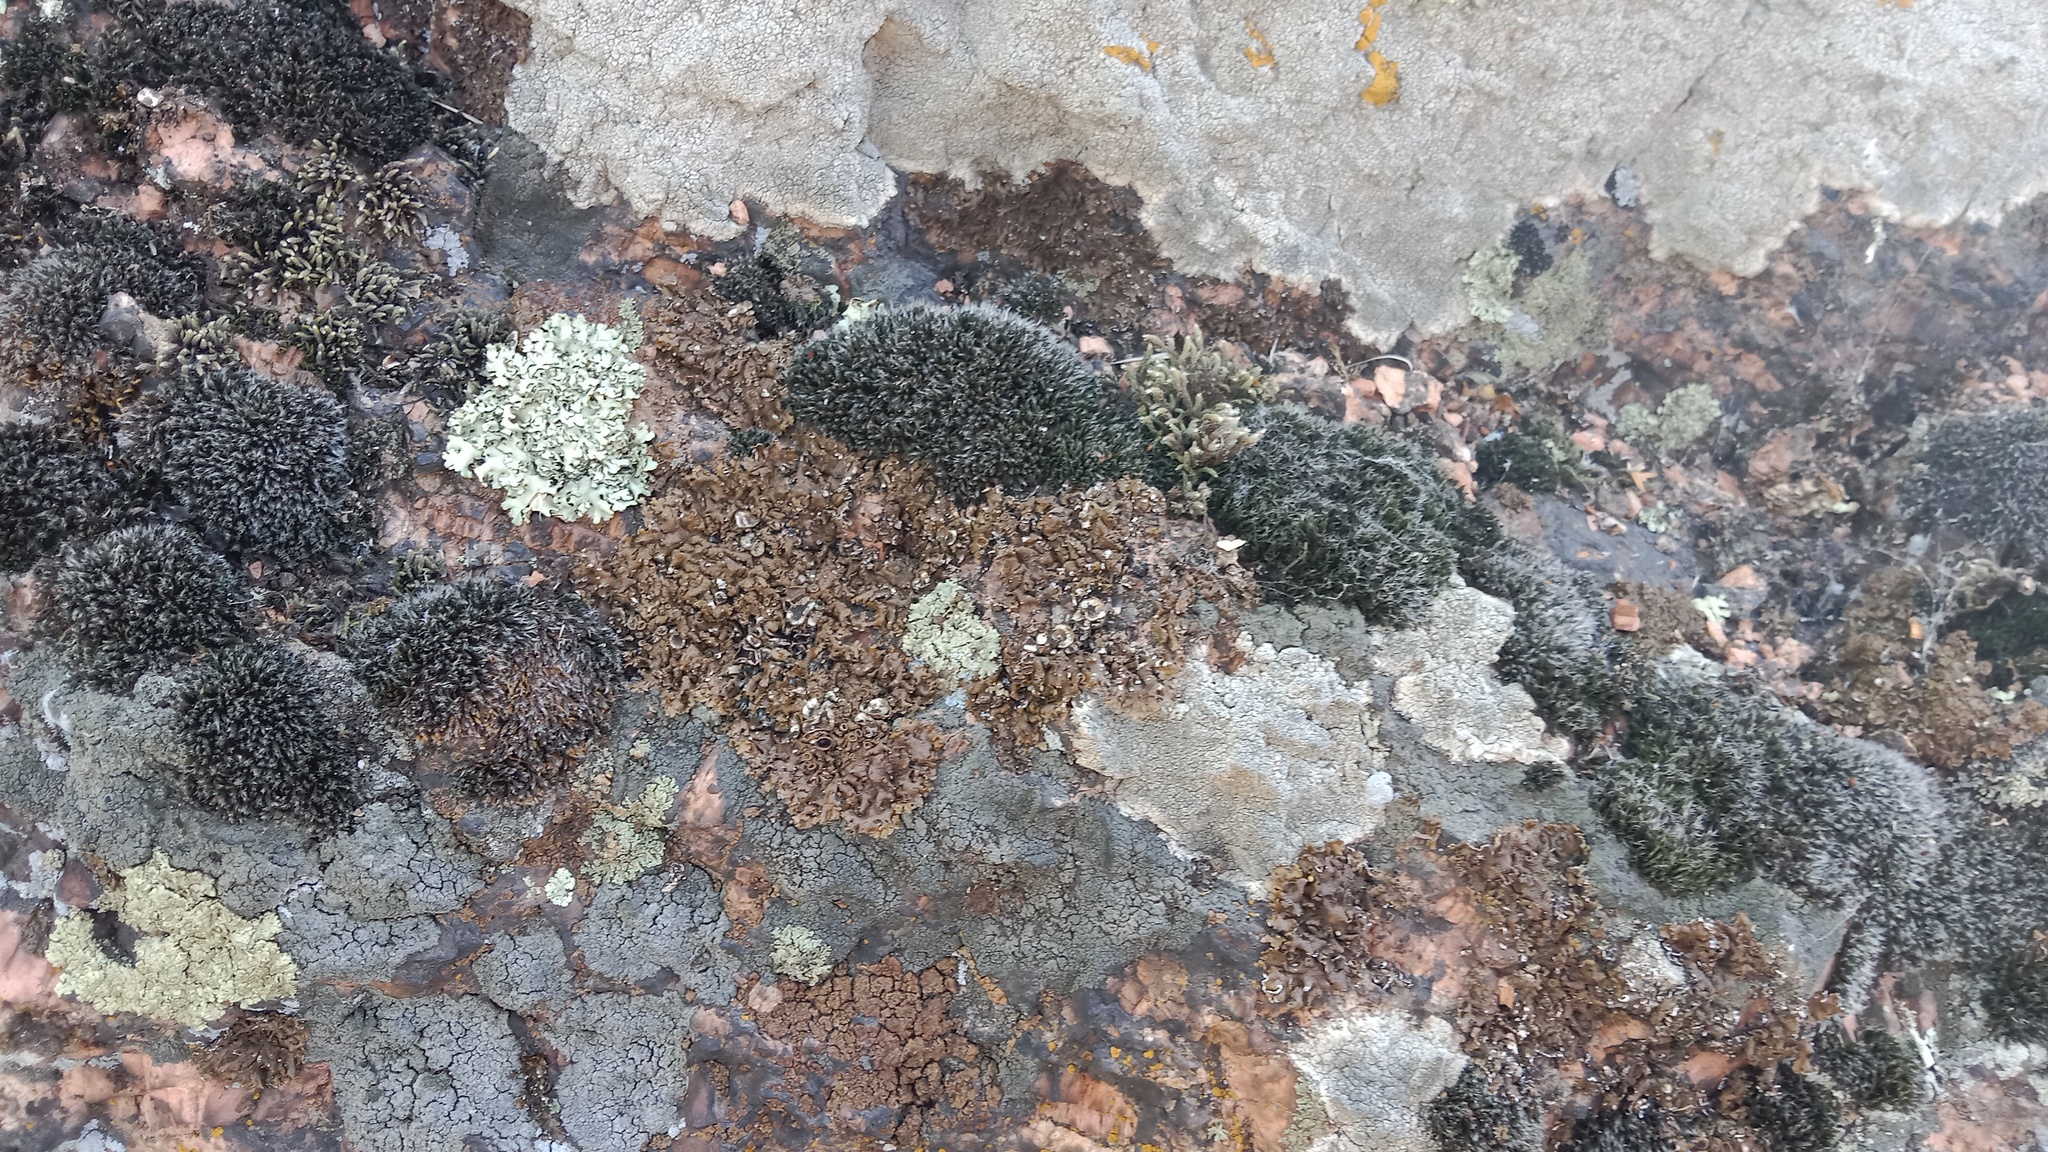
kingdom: Fungi
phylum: Ascomycota
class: Lecanoromycetes
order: Lecanorales
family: Parmeliaceae
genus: Xanthoparmelia
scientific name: Xanthoparmelia pulla
